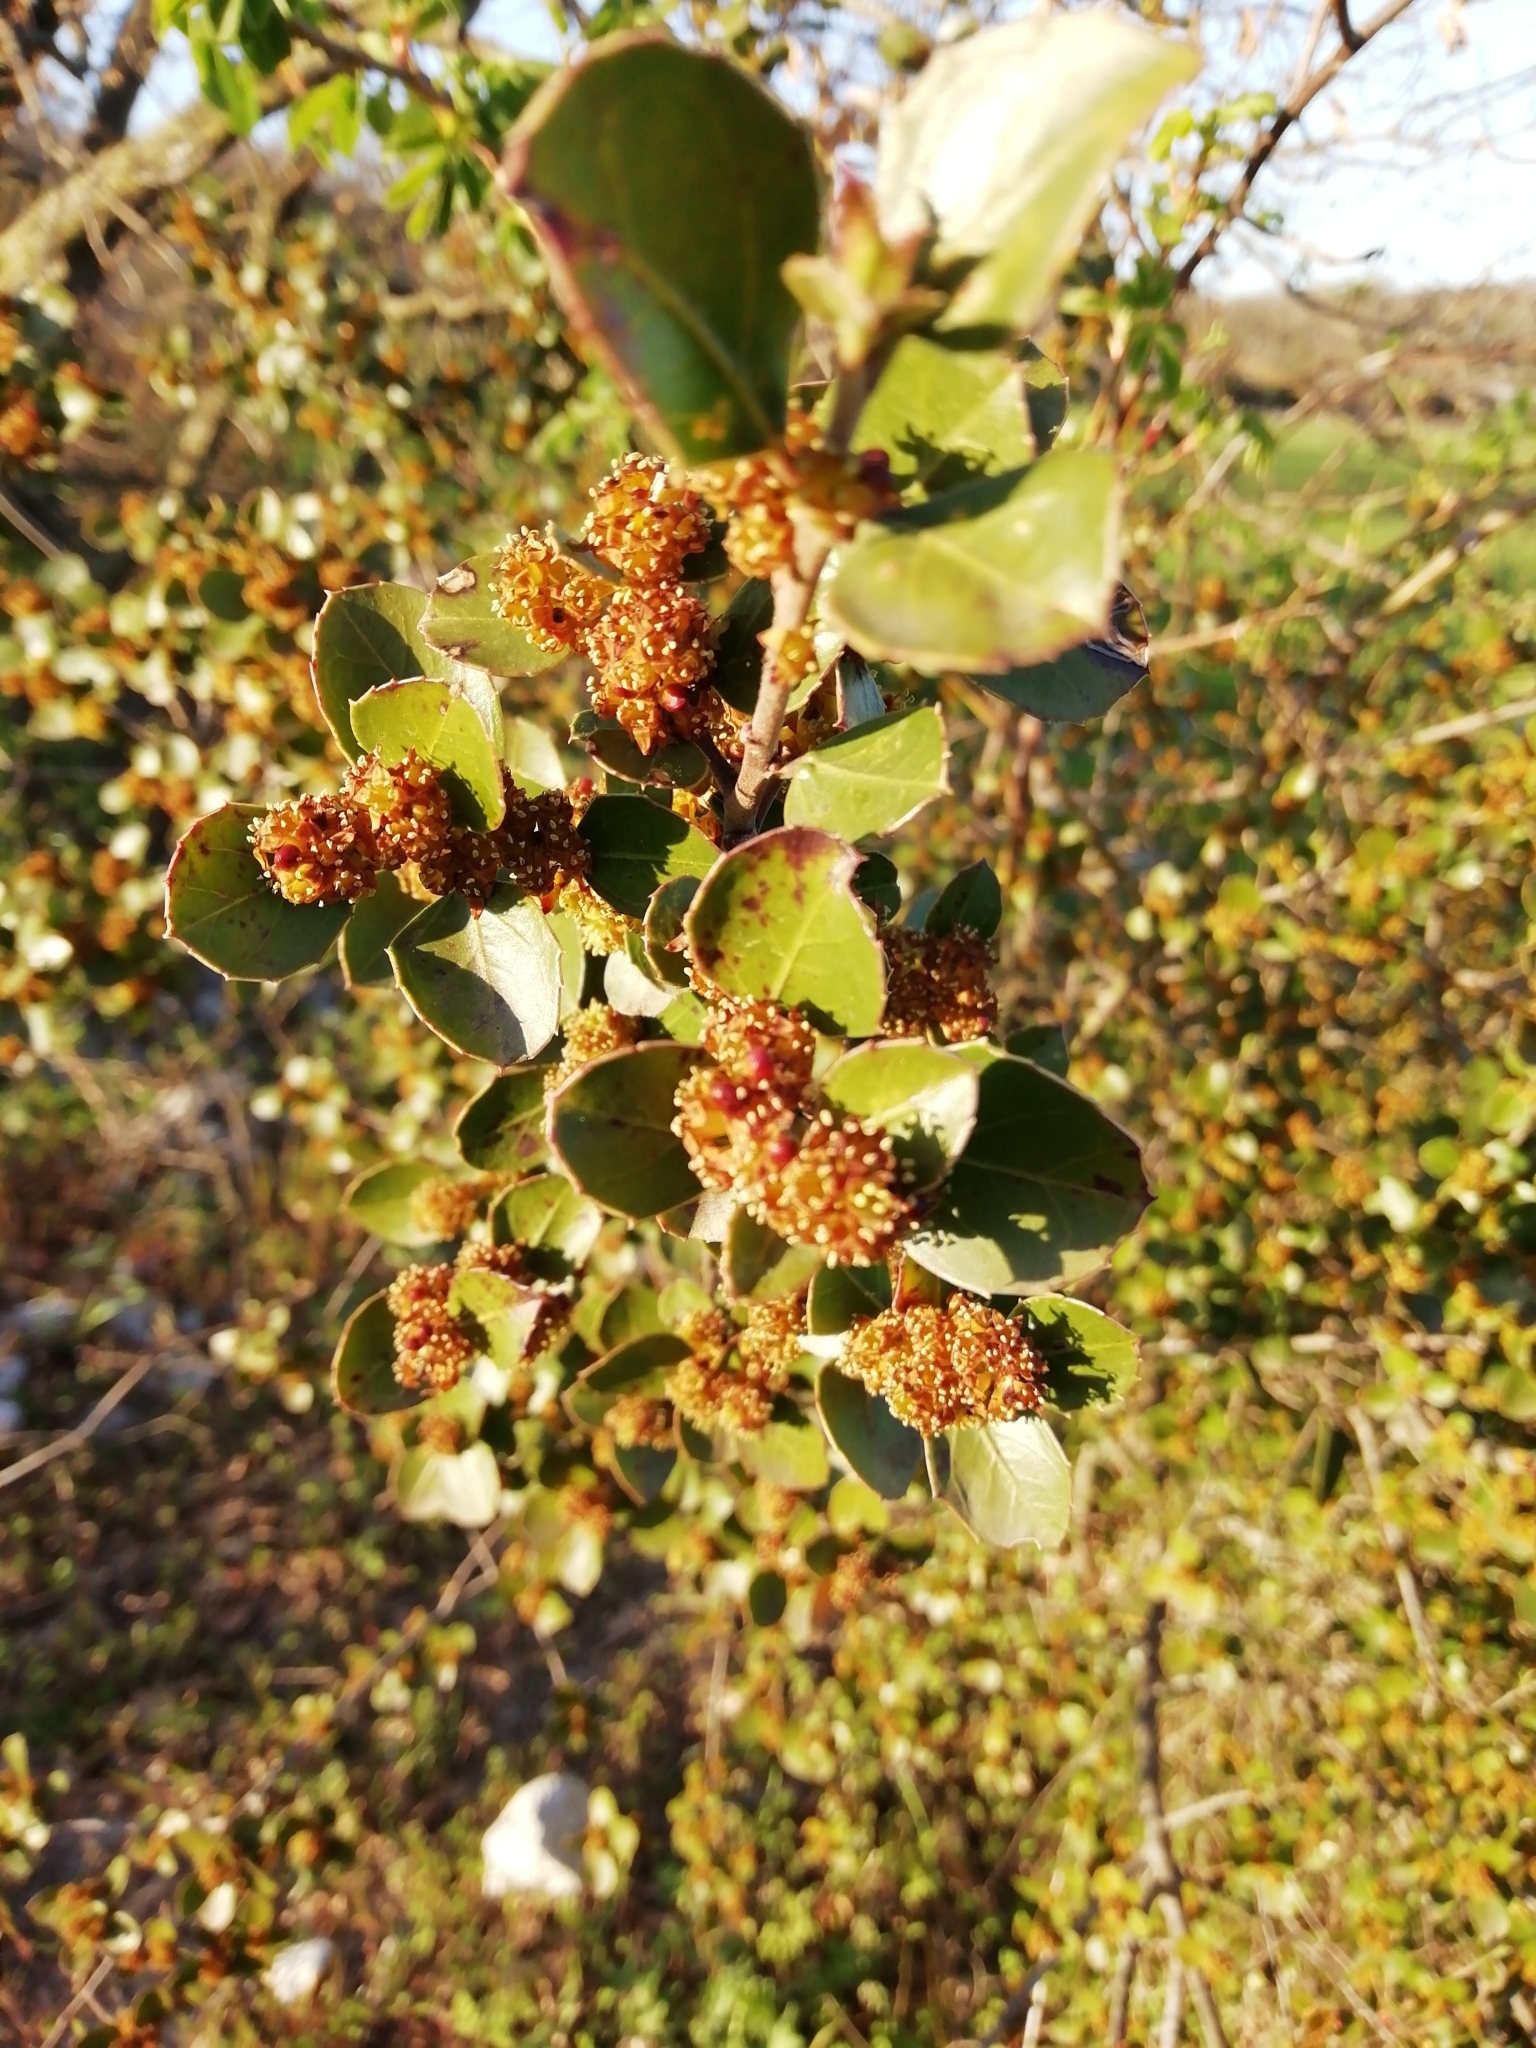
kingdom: Plantae
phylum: Tracheophyta
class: Magnoliopsida
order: Rosales
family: Rhamnaceae
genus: Rhamnus
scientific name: Rhamnus alaternus
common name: Mediterranean buckthorn
